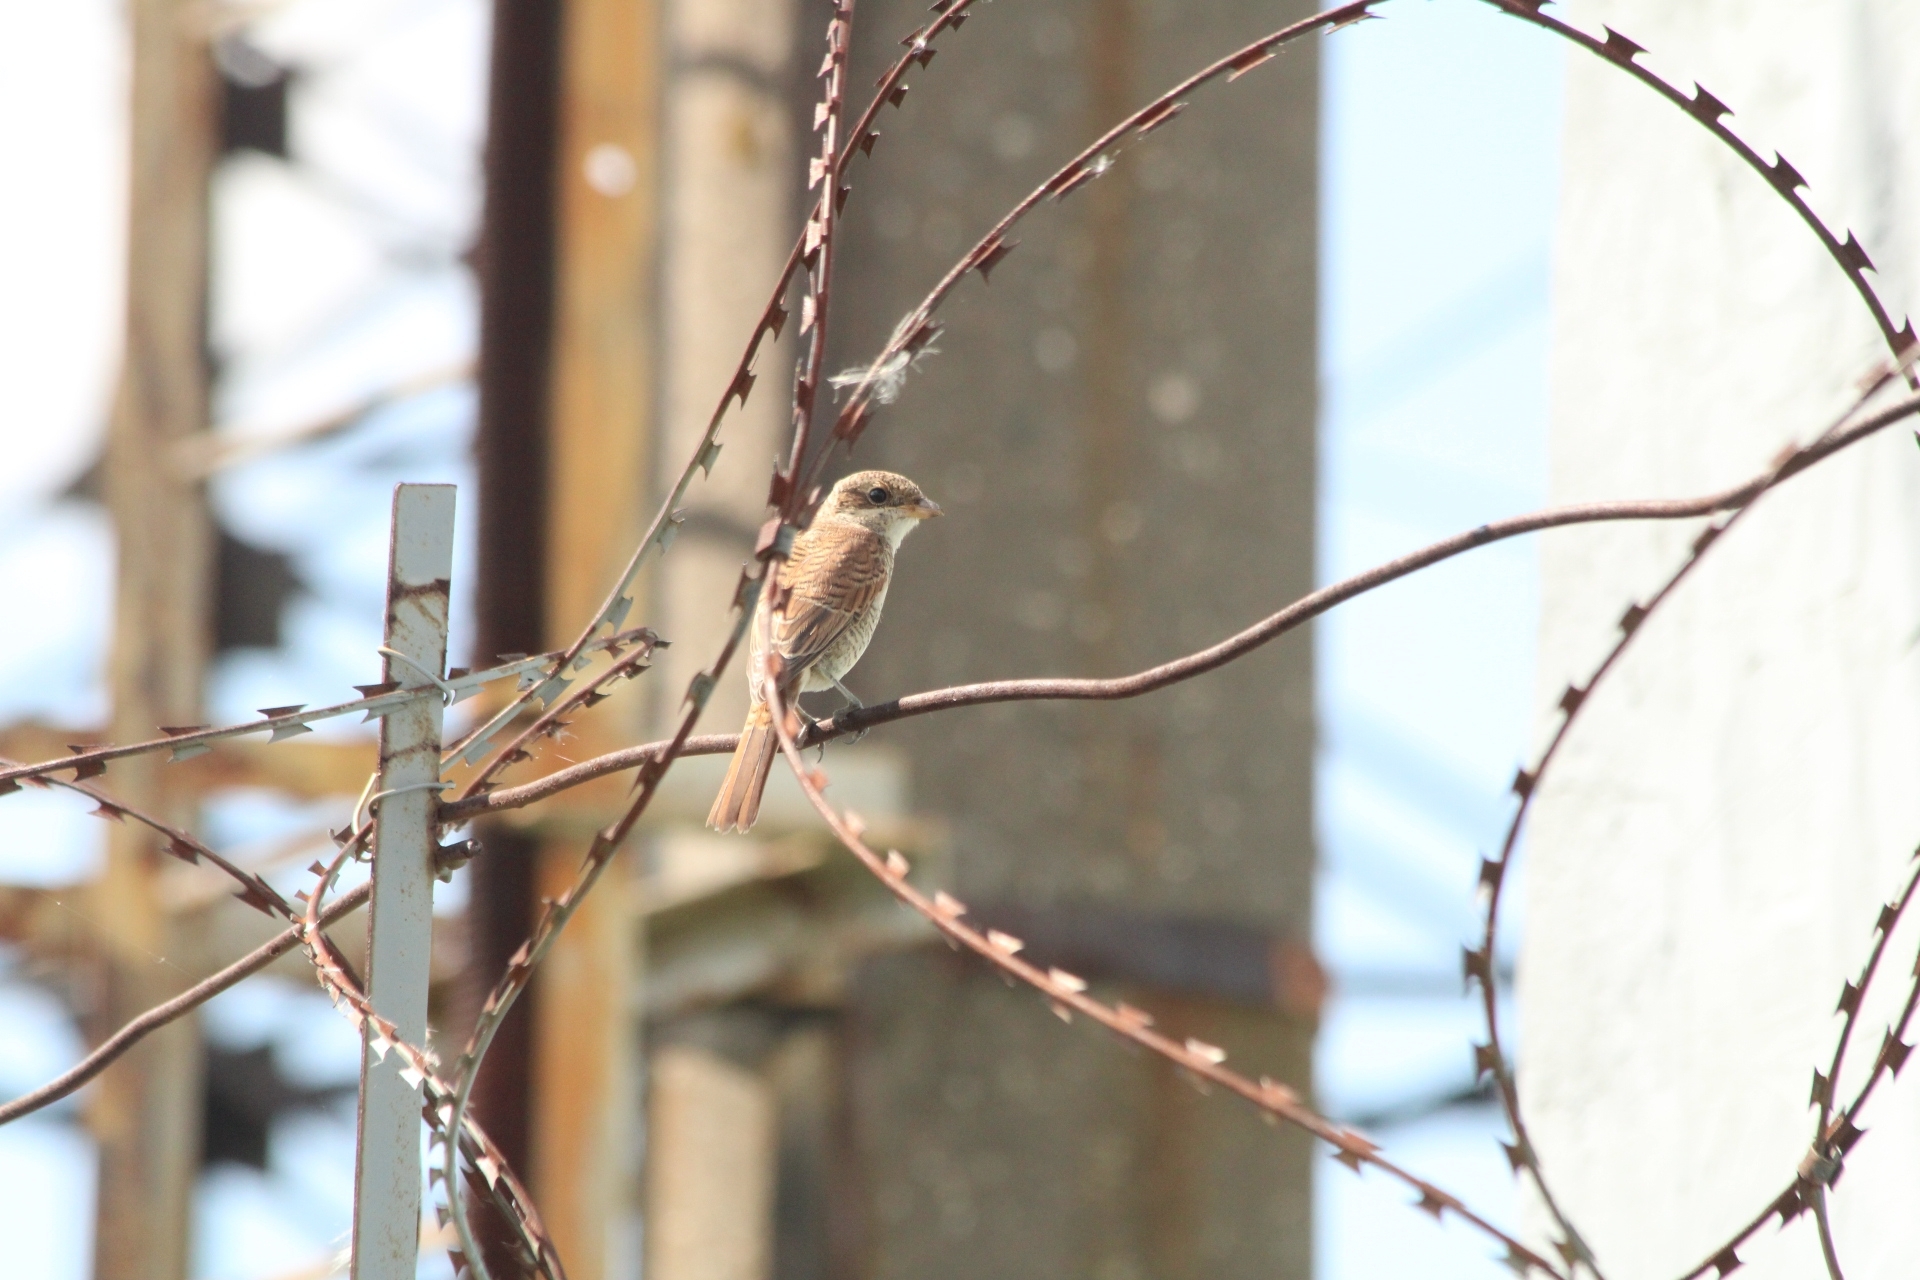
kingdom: Animalia
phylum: Chordata
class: Aves
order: Passeriformes
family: Laniidae
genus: Lanius
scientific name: Lanius collurio
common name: Red-backed shrike
